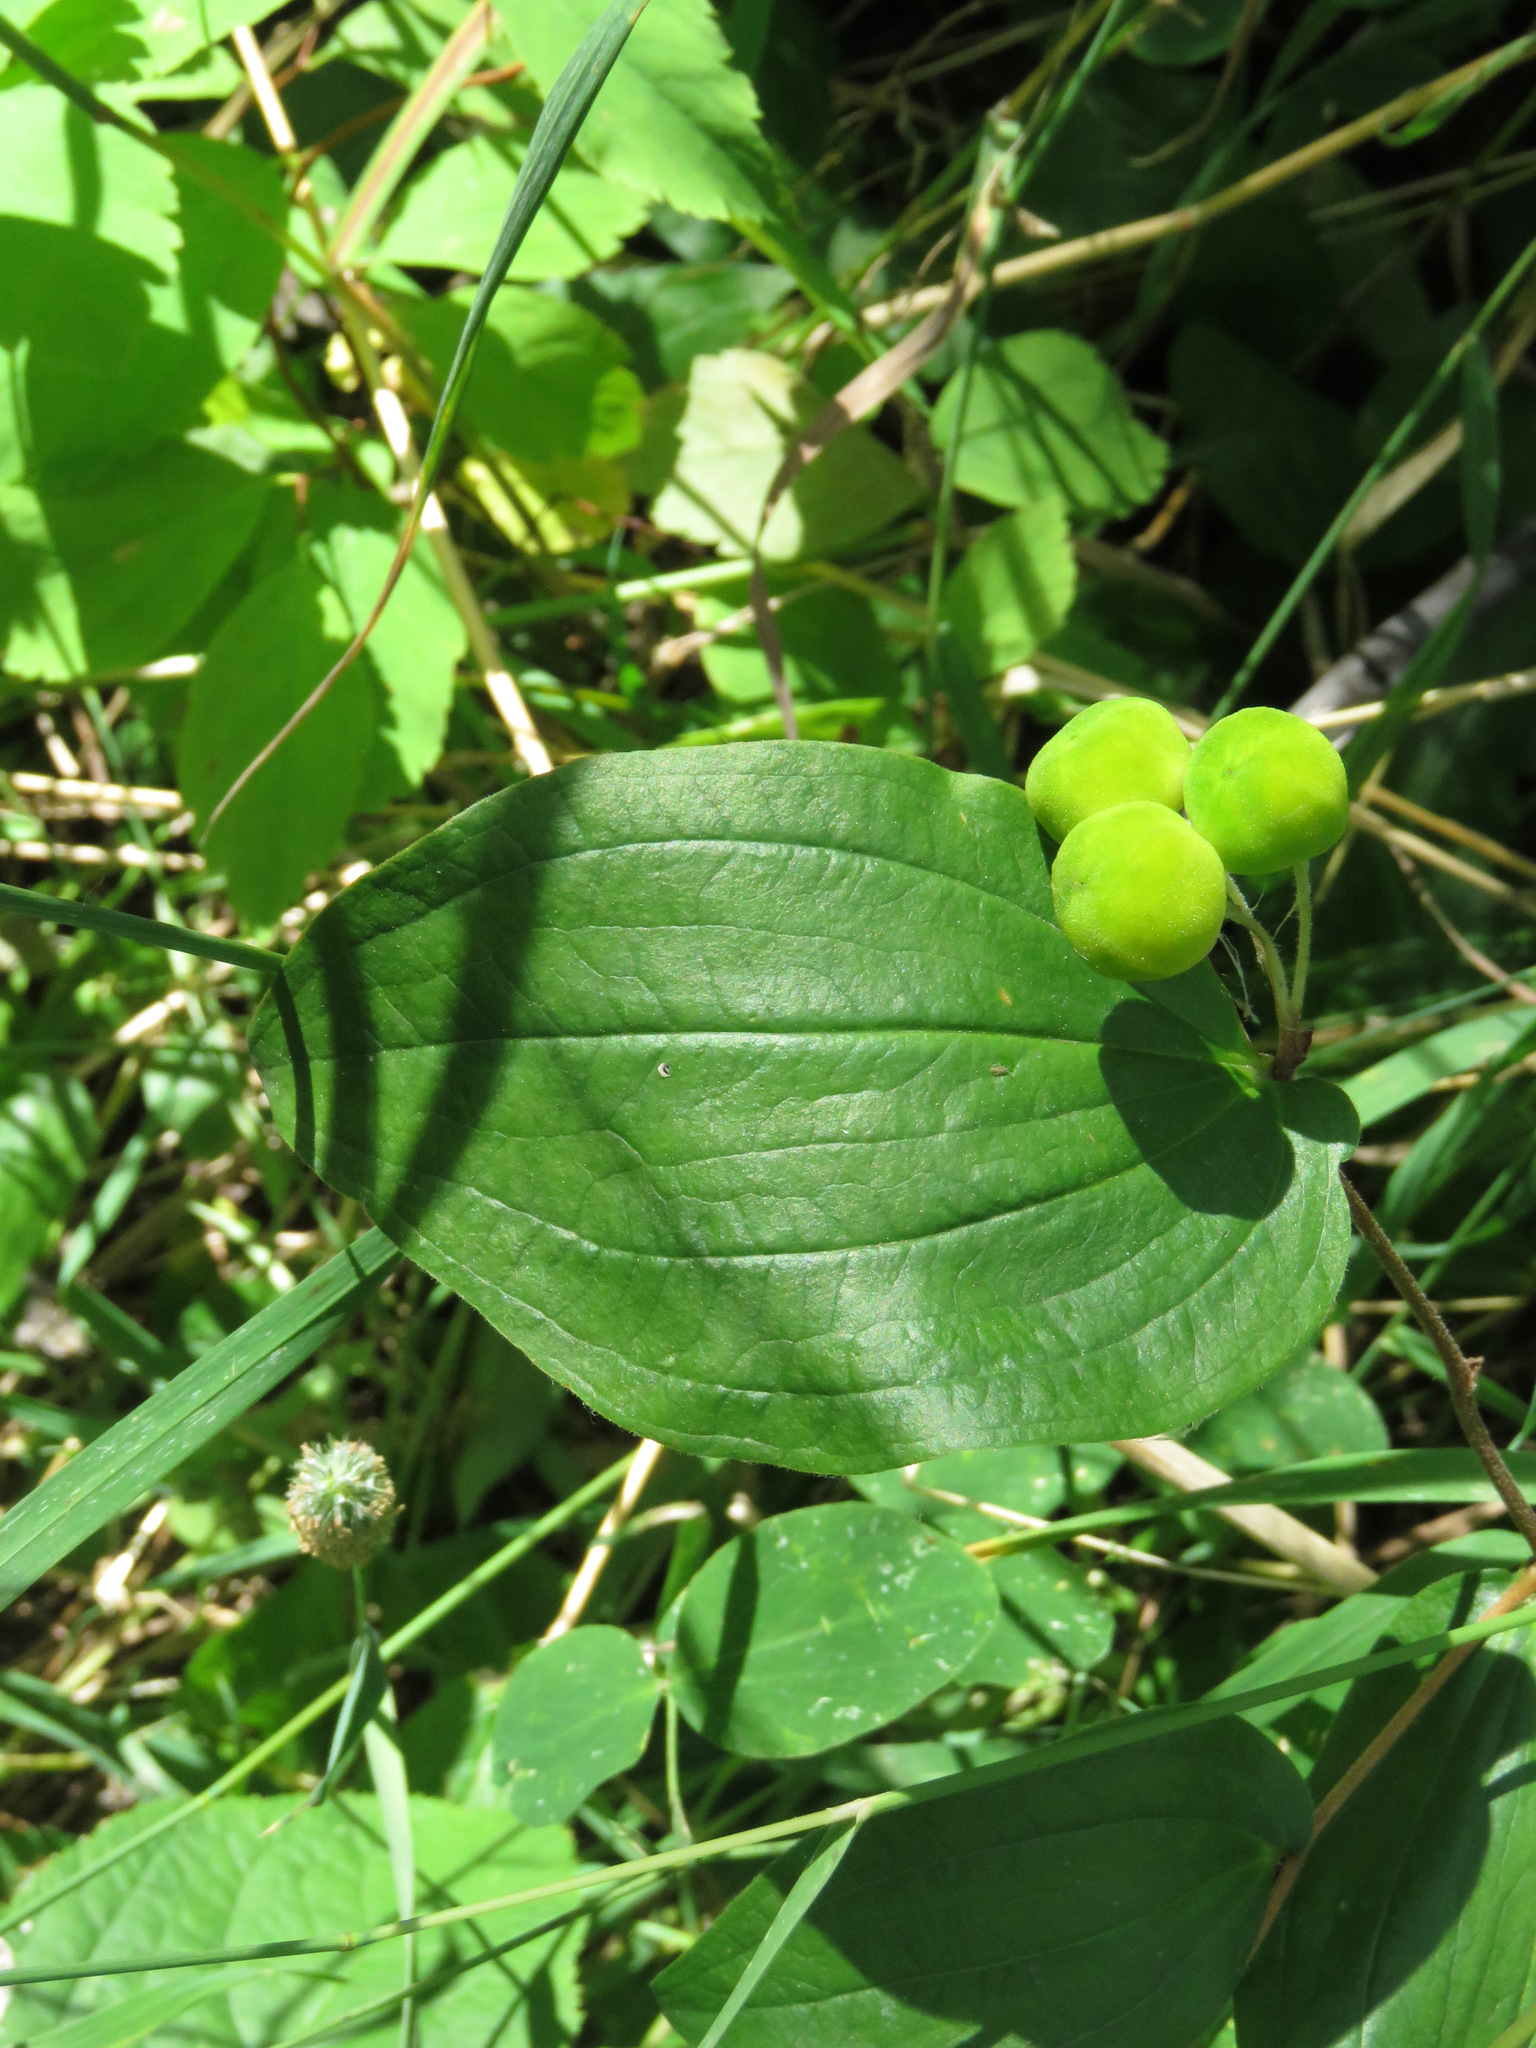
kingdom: Plantae
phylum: Tracheophyta
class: Liliopsida
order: Liliales
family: Liliaceae
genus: Prosartes
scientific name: Prosartes trachycarpa
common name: Rough-fruit fairy-bells
